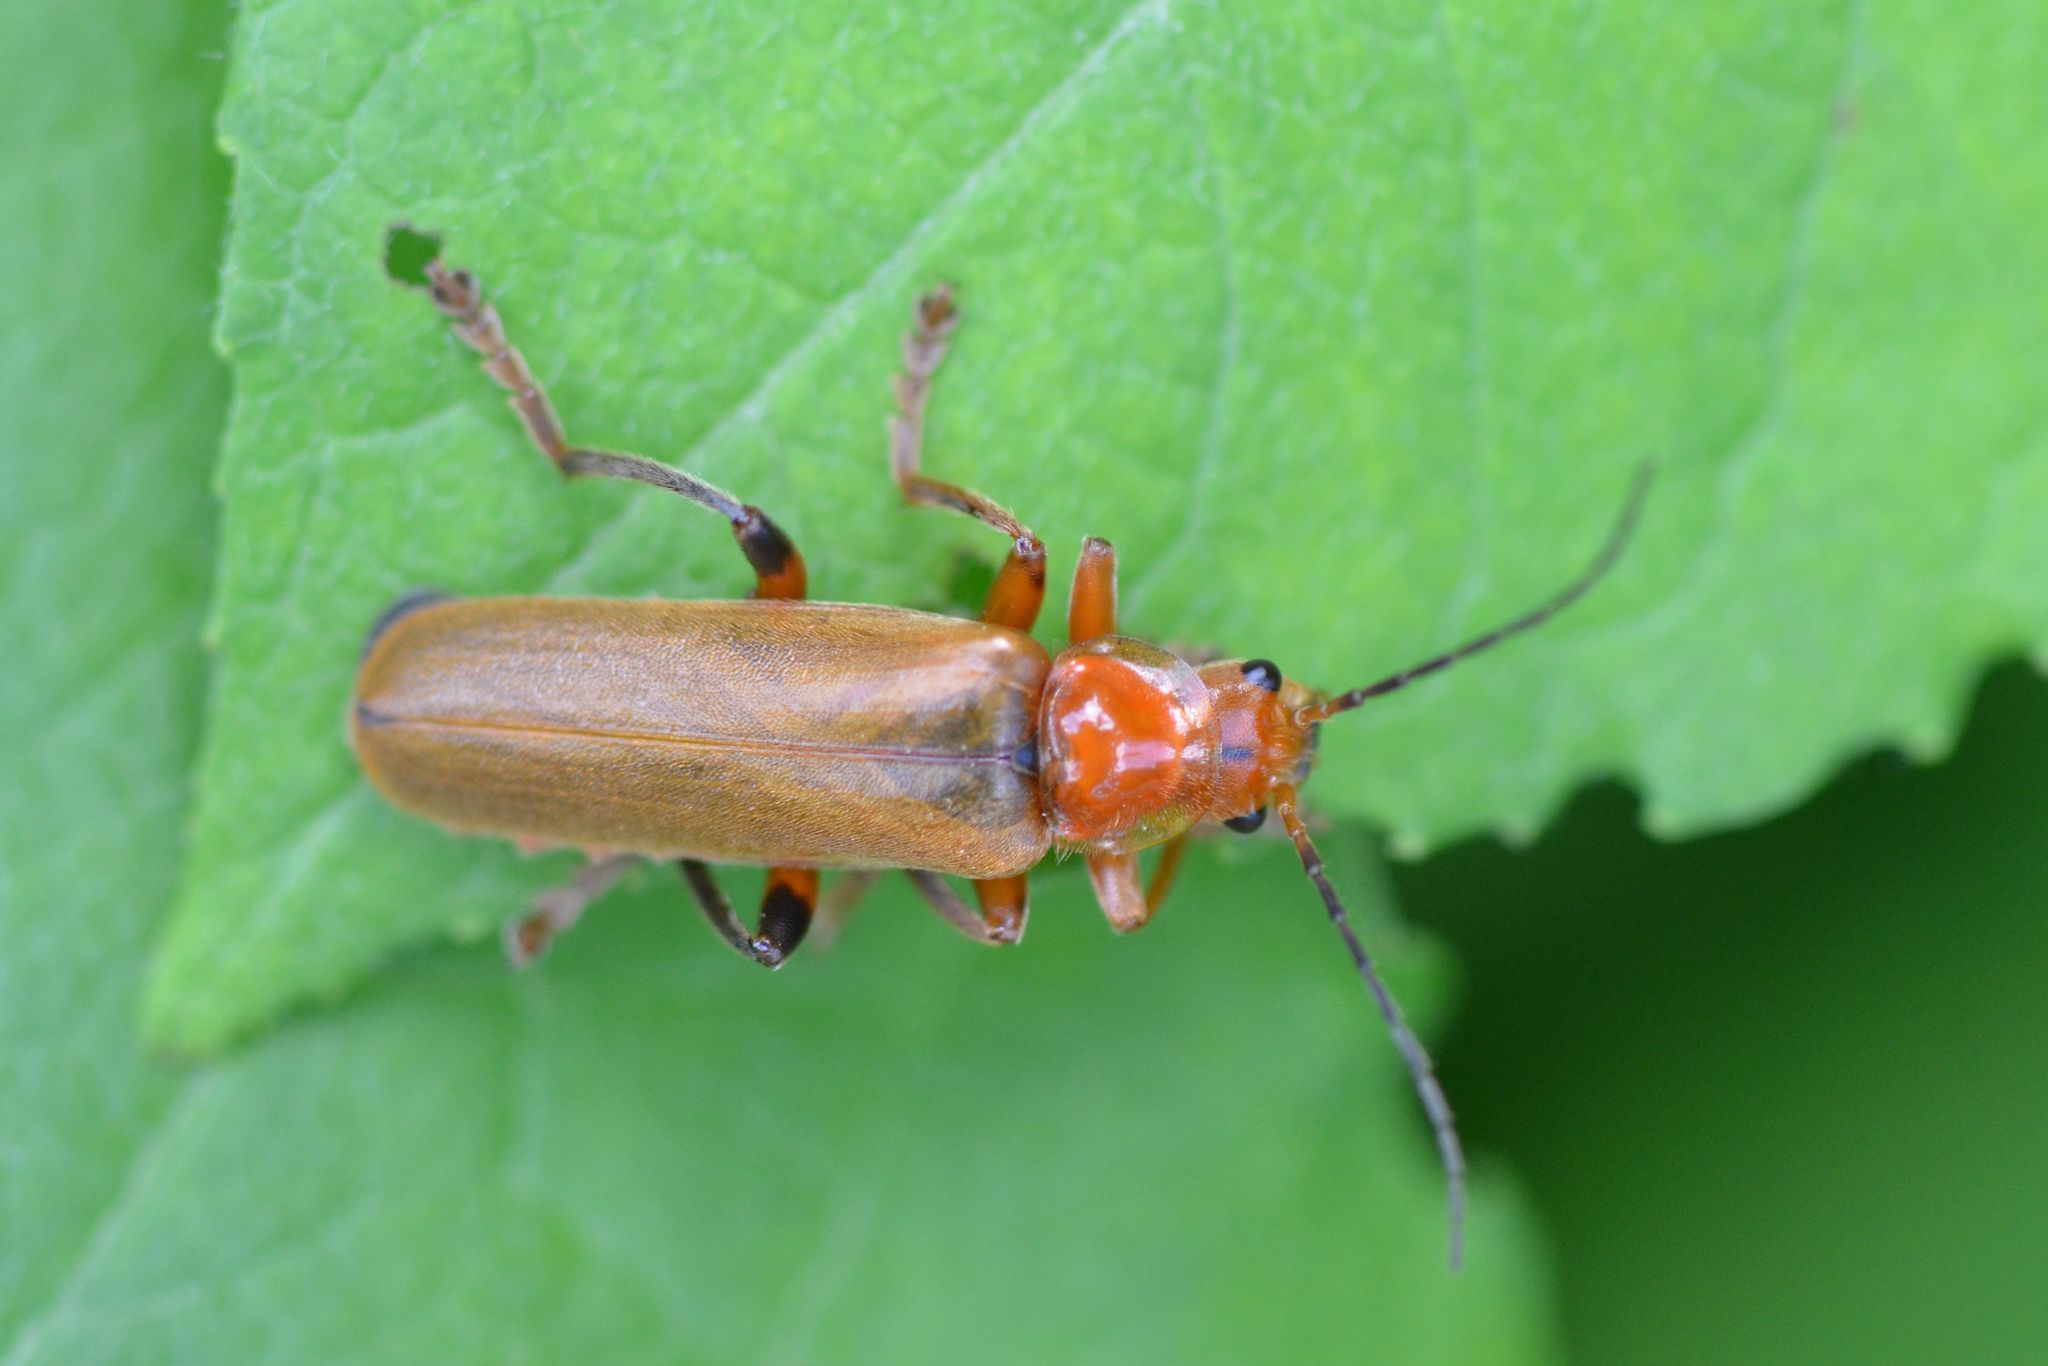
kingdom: Animalia
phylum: Arthropoda
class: Insecta
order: Coleoptera
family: Cantharidae
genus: Cantharis
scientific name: Cantharis livida
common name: Livid soldier beetle
